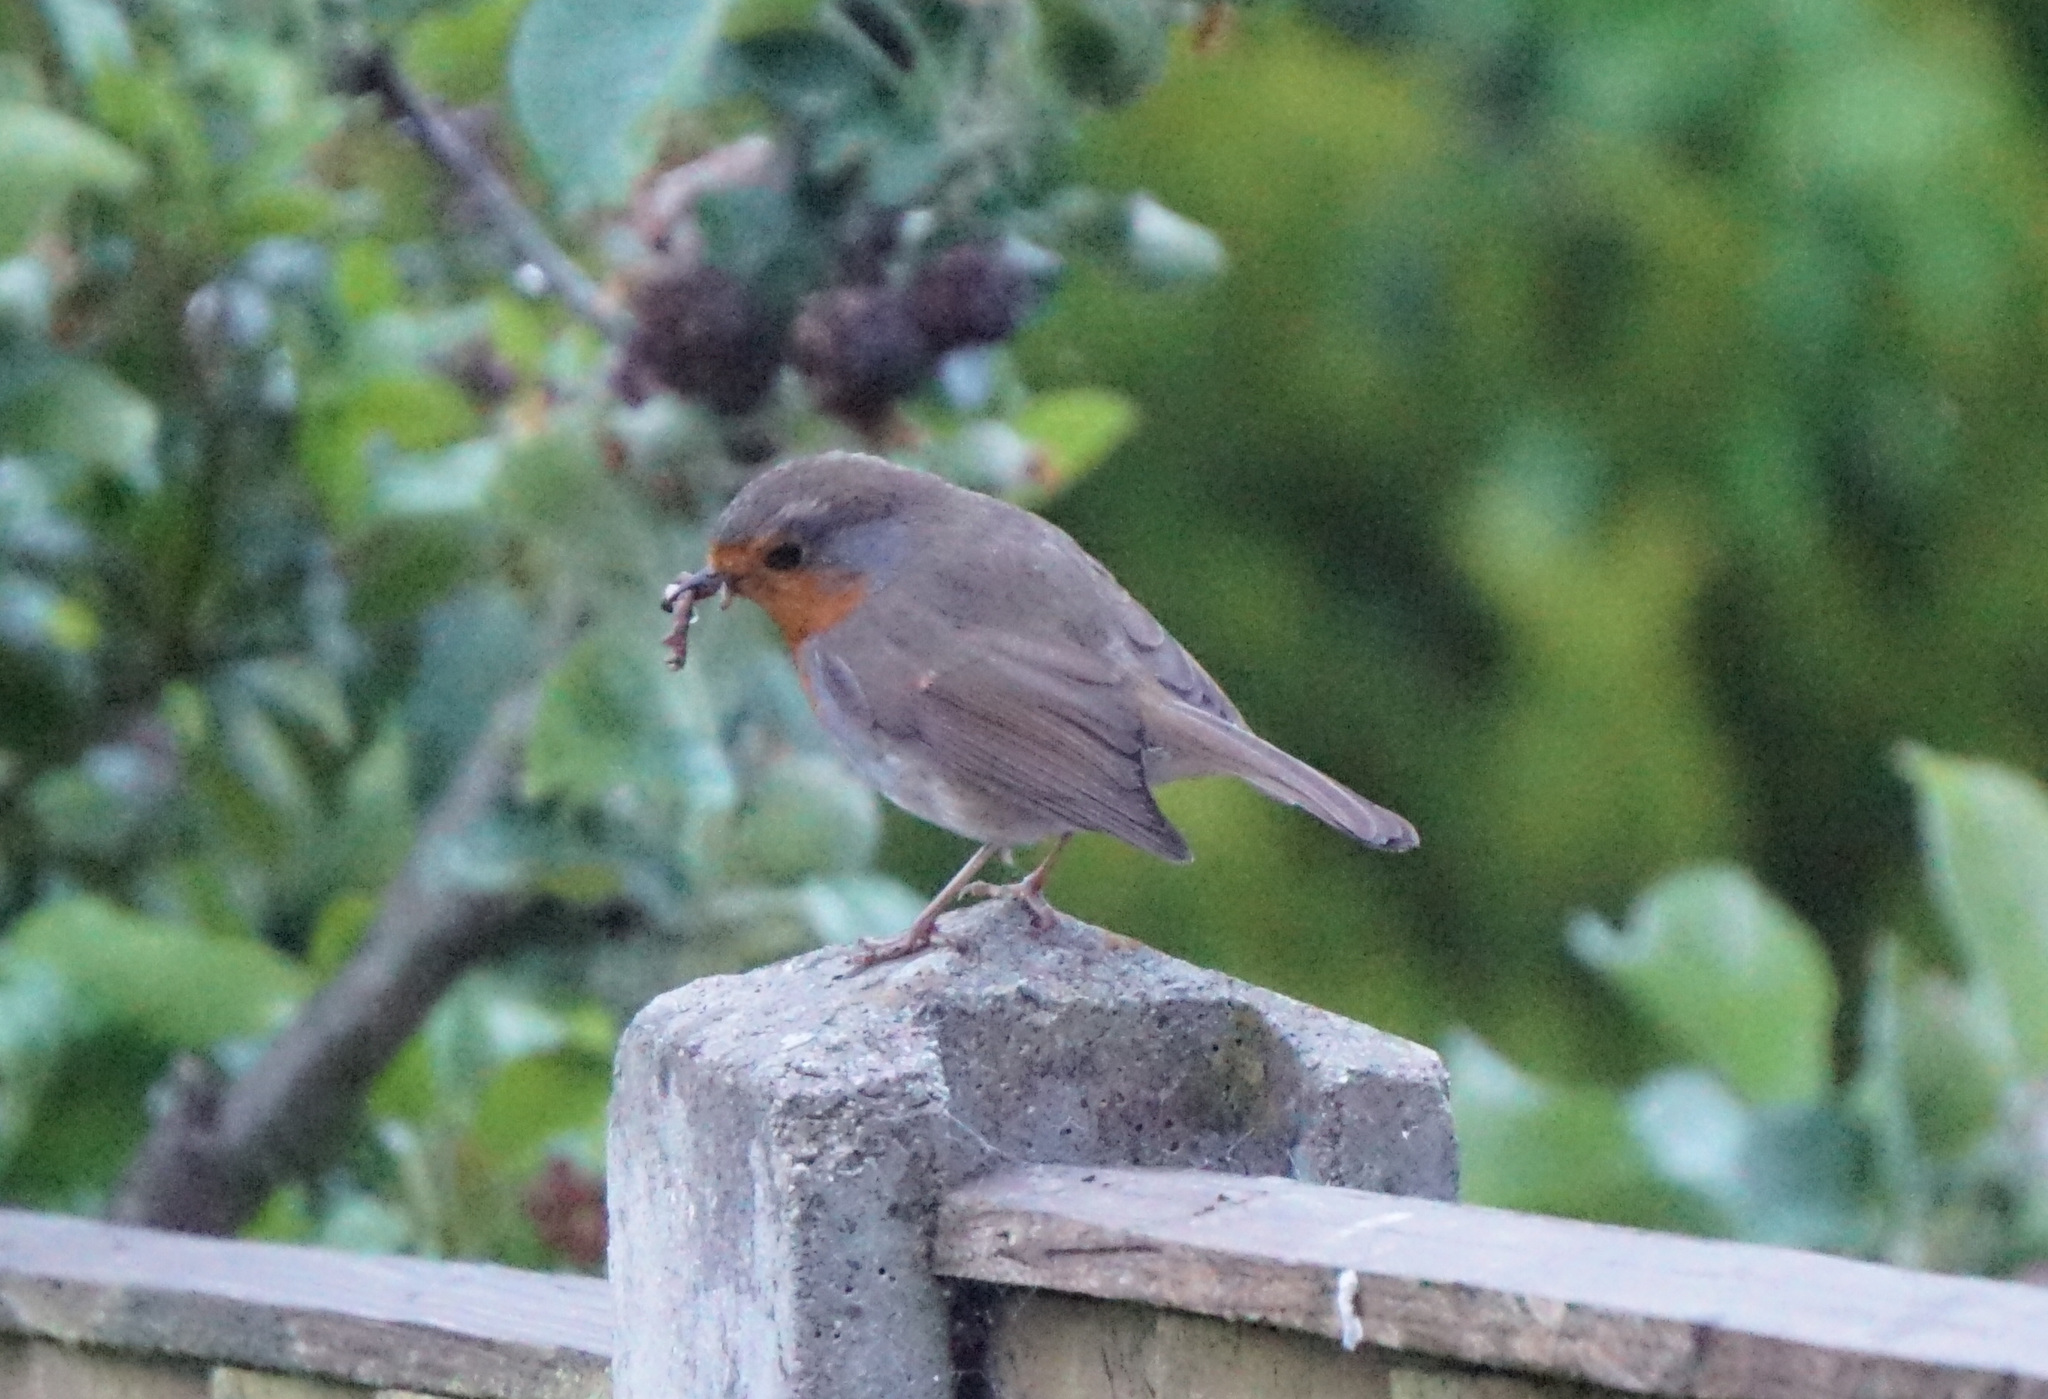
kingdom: Animalia
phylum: Chordata
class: Aves
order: Passeriformes
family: Muscicapidae
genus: Erithacus
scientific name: Erithacus rubecula
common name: European robin
